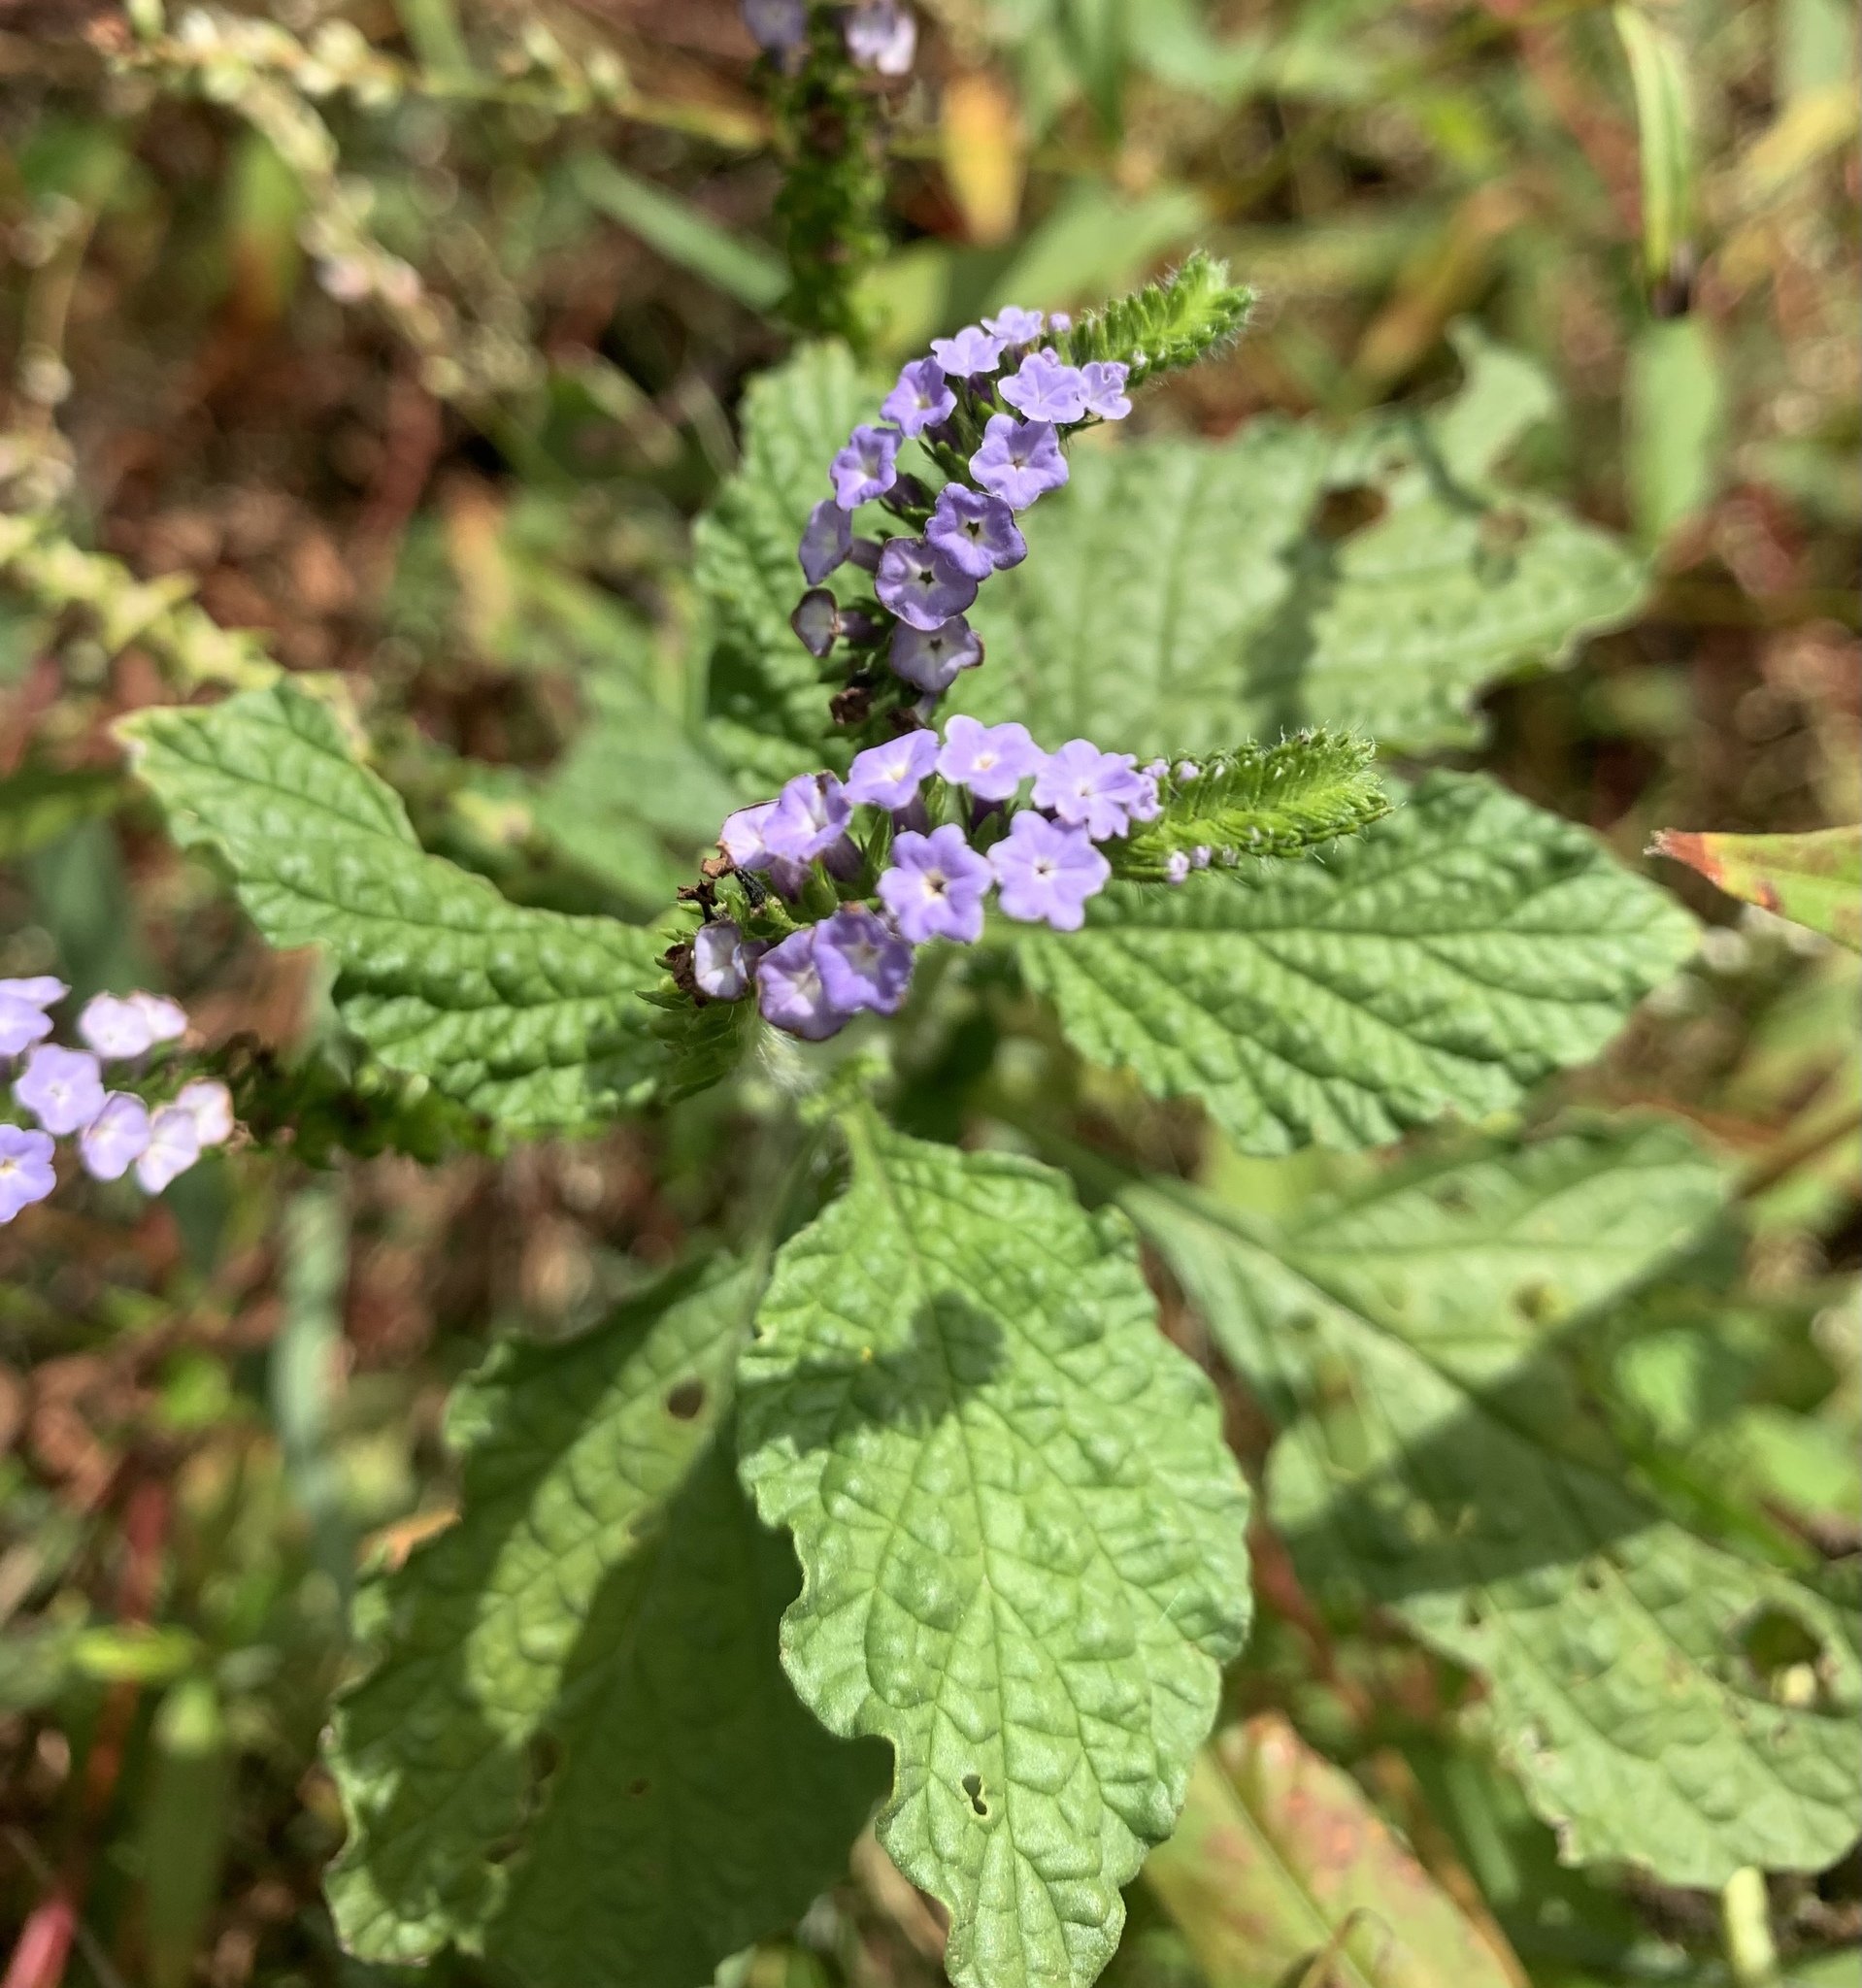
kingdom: Plantae
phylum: Tracheophyta
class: Magnoliopsida
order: Boraginales
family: Heliotropiaceae
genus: Heliotropium
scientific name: Heliotropium indicum
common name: Indian heliotrope
